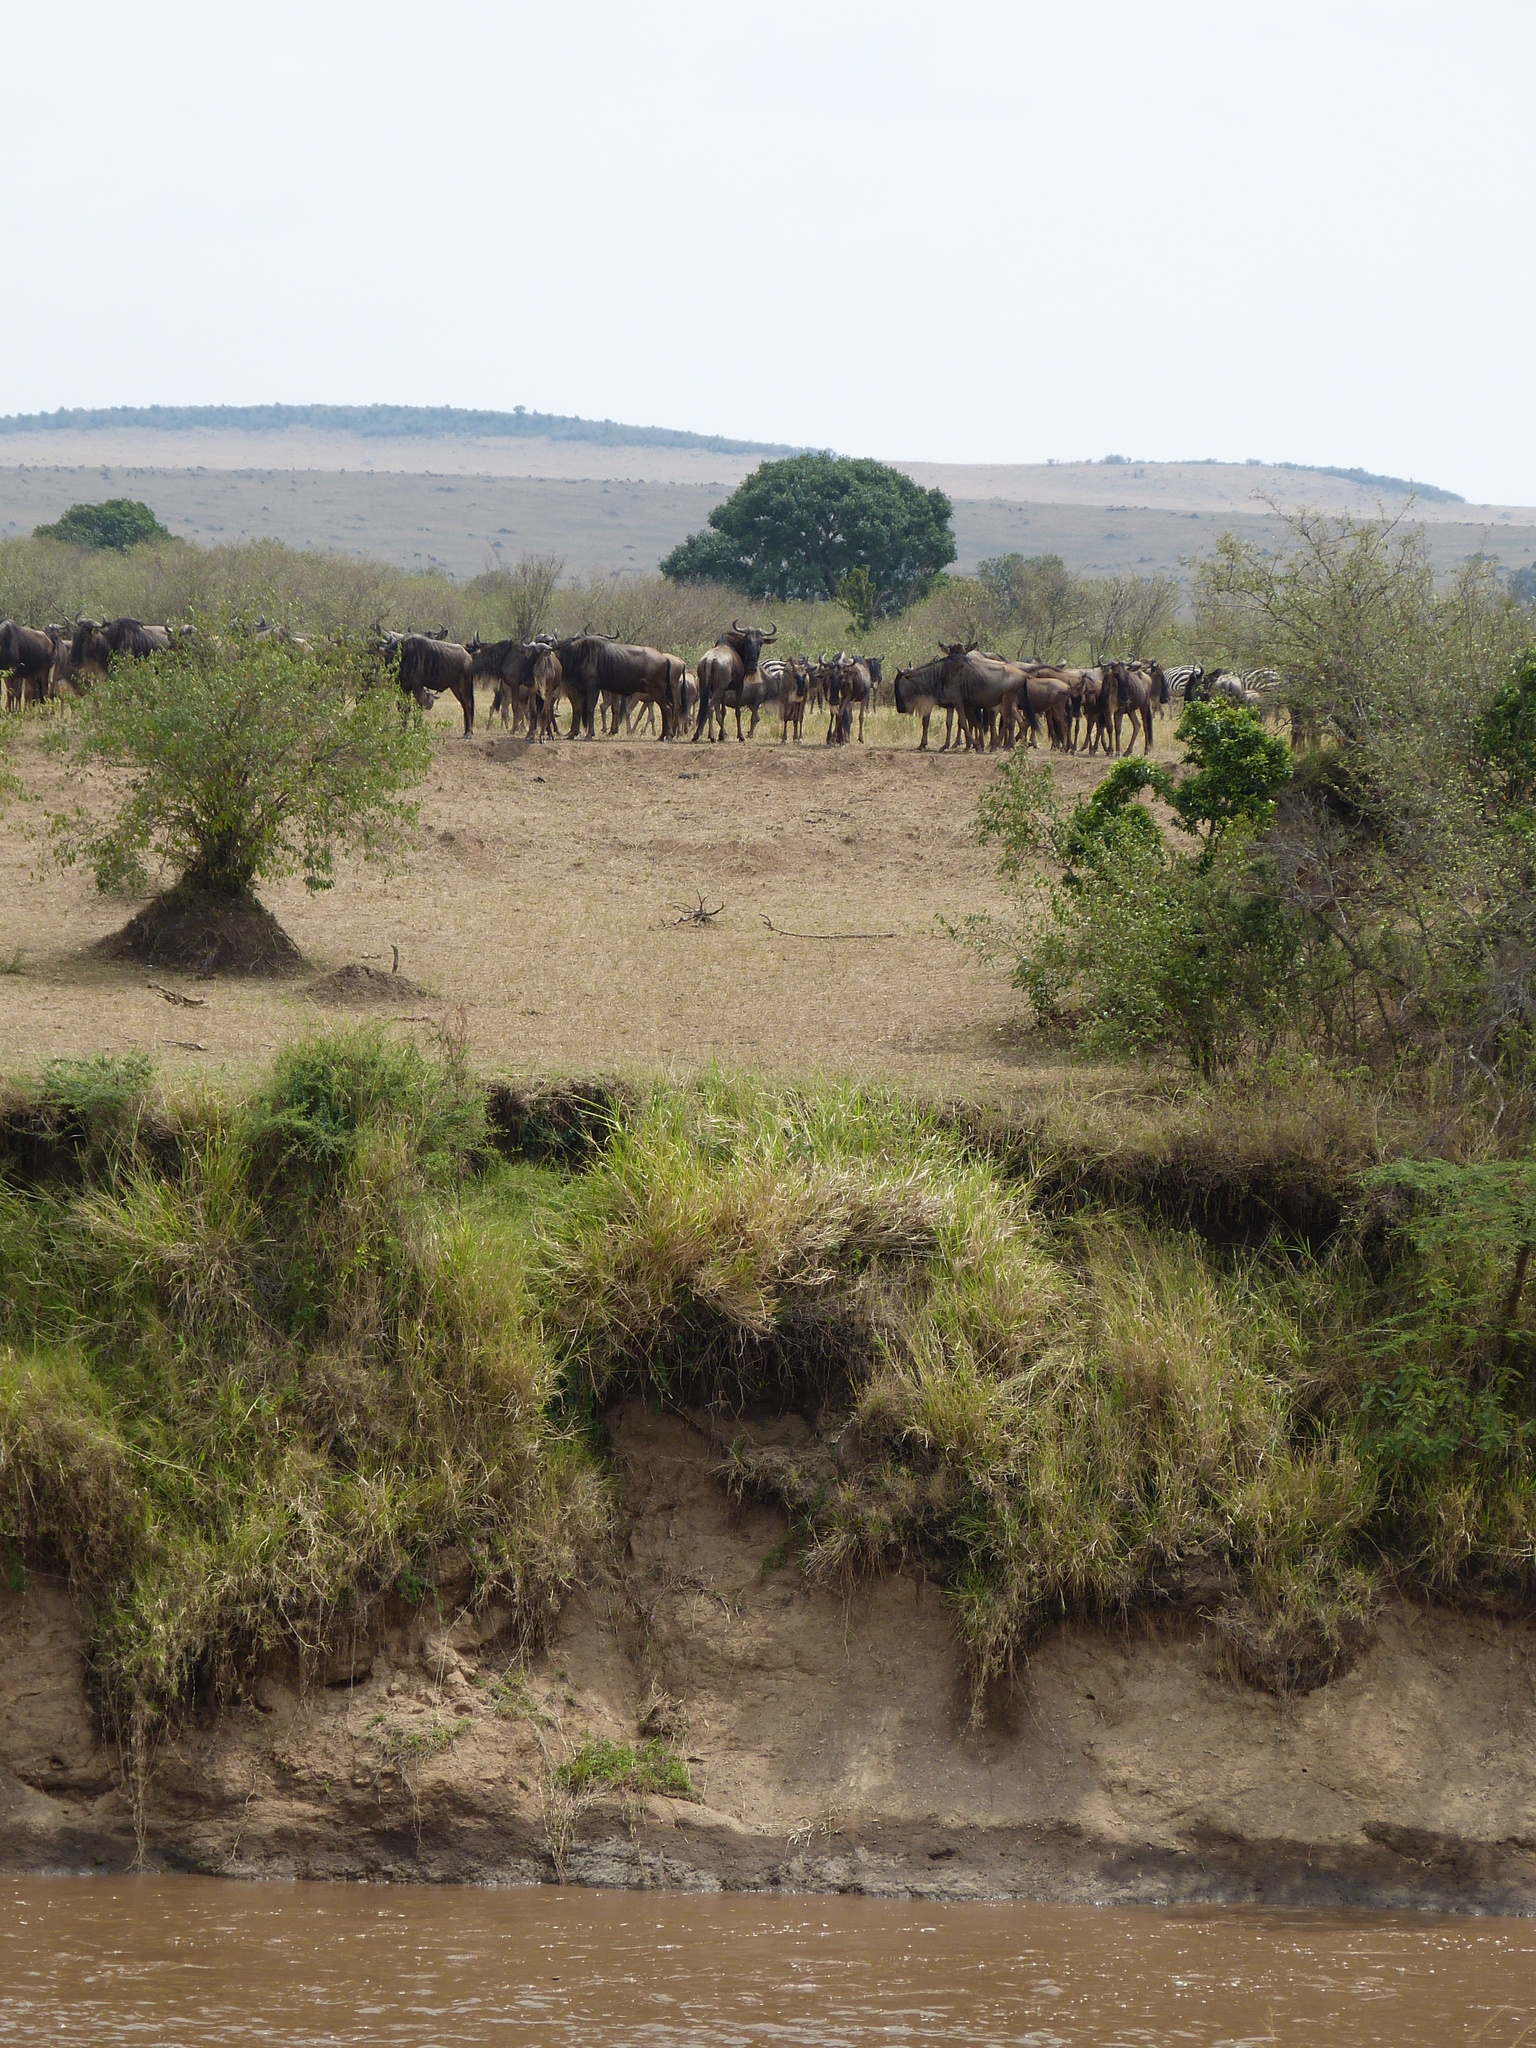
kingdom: Animalia
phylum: Chordata
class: Mammalia
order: Artiodactyla
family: Bovidae
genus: Connochaetes
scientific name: Connochaetes taurinus
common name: Blue wildebeest
